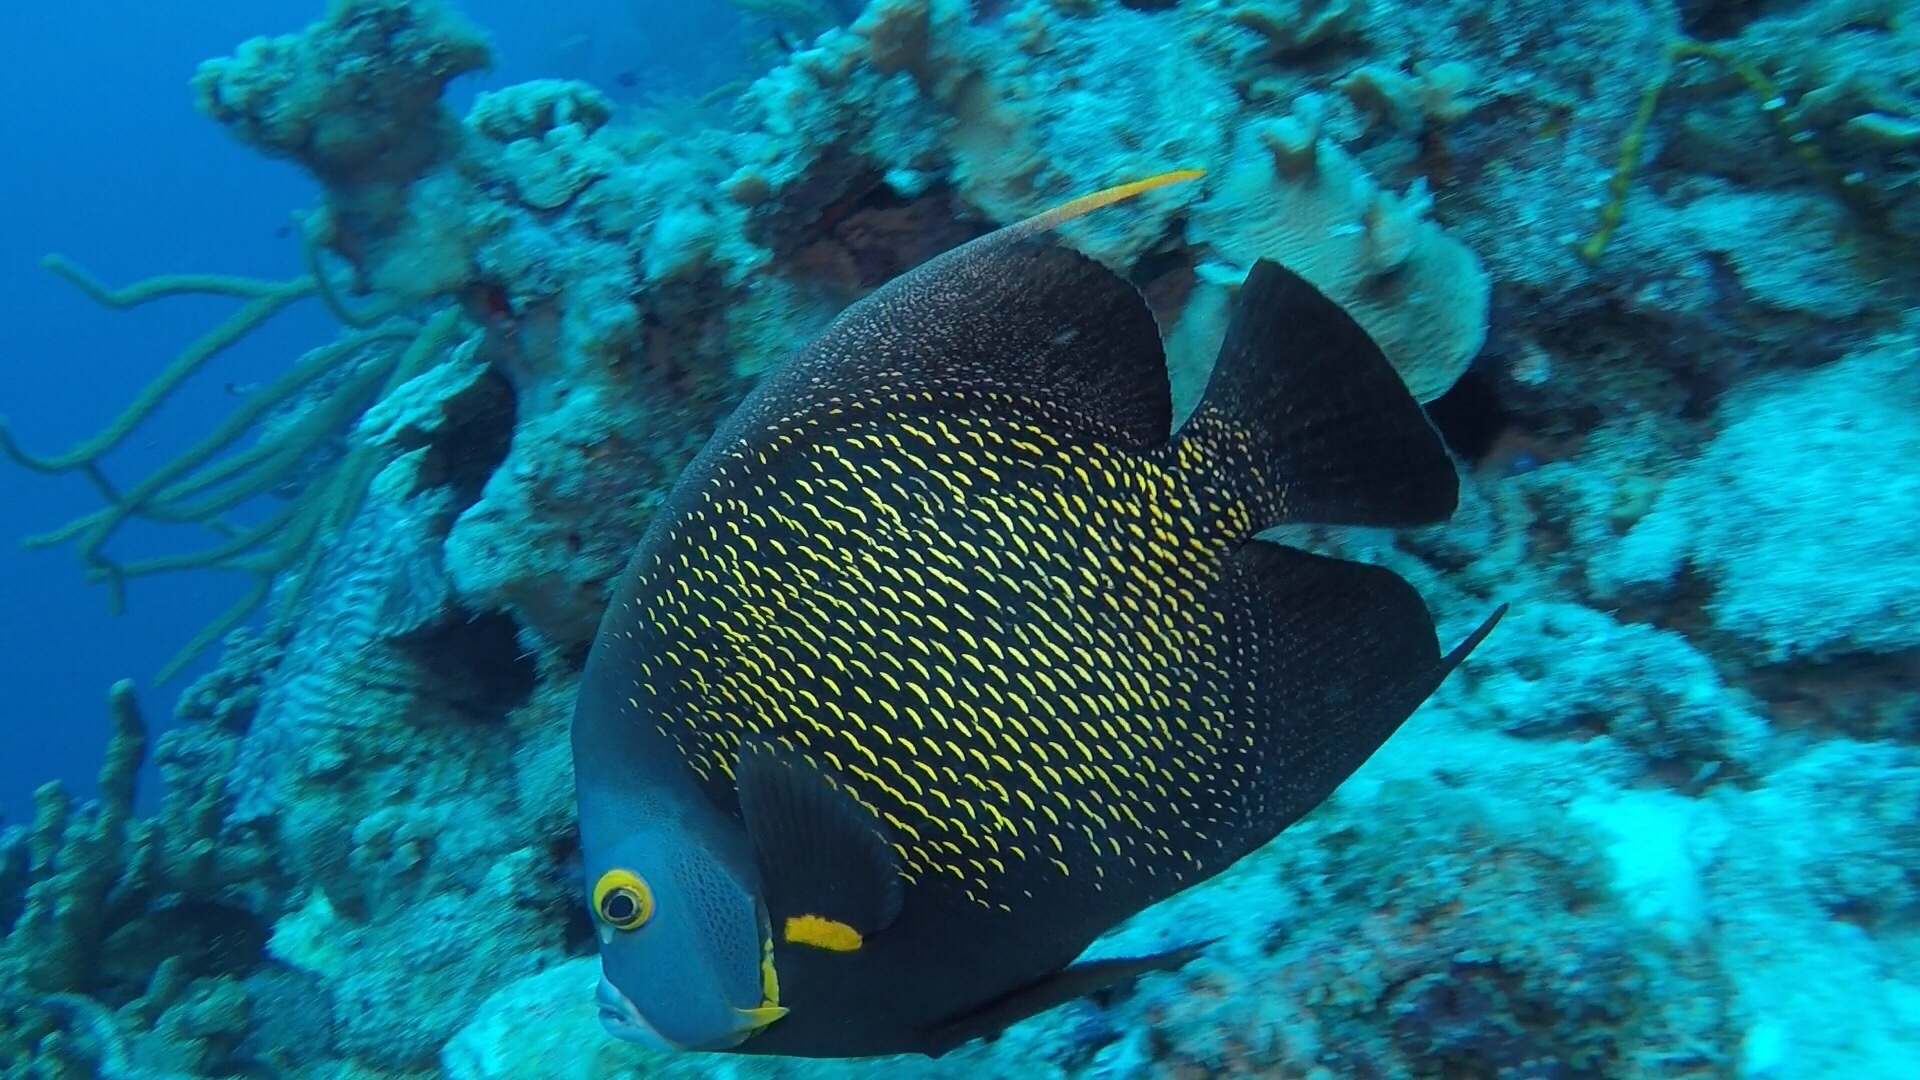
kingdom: Animalia
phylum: Chordata
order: Perciformes
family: Pomacanthidae
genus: Pomacanthus
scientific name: Pomacanthus paru
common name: French angelfish
